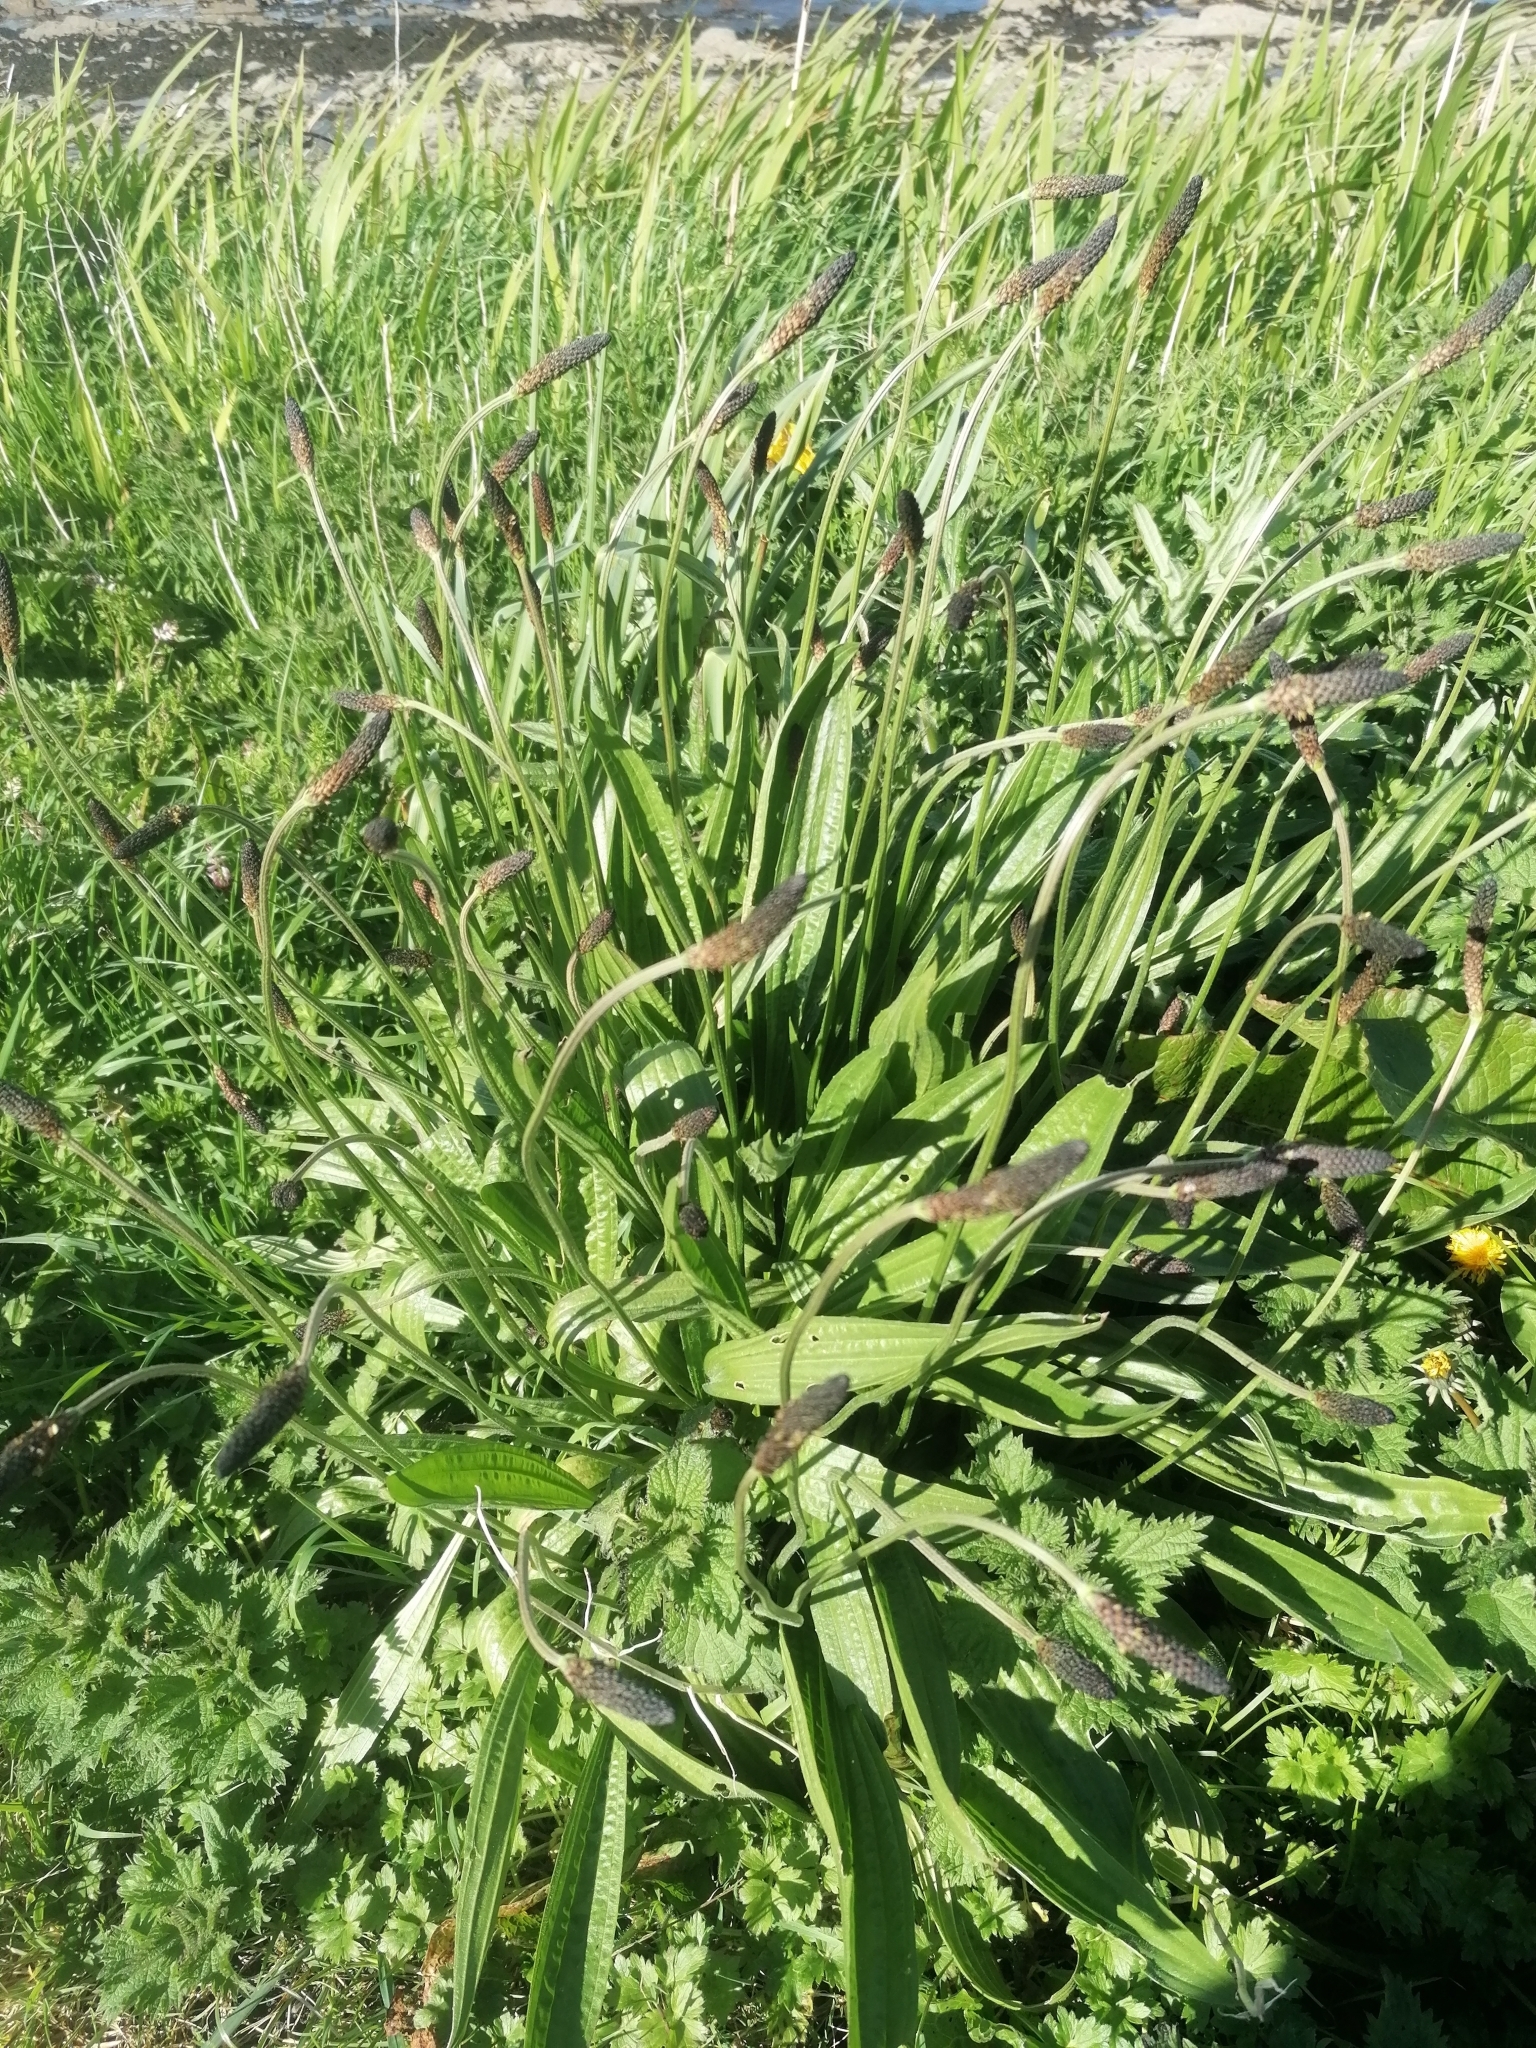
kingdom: Plantae
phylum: Tracheophyta
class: Magnoliopsida
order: Lamiales
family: Plantaginaceae
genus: Plantago
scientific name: Plantago lanceolata
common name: Ribwort plantain
